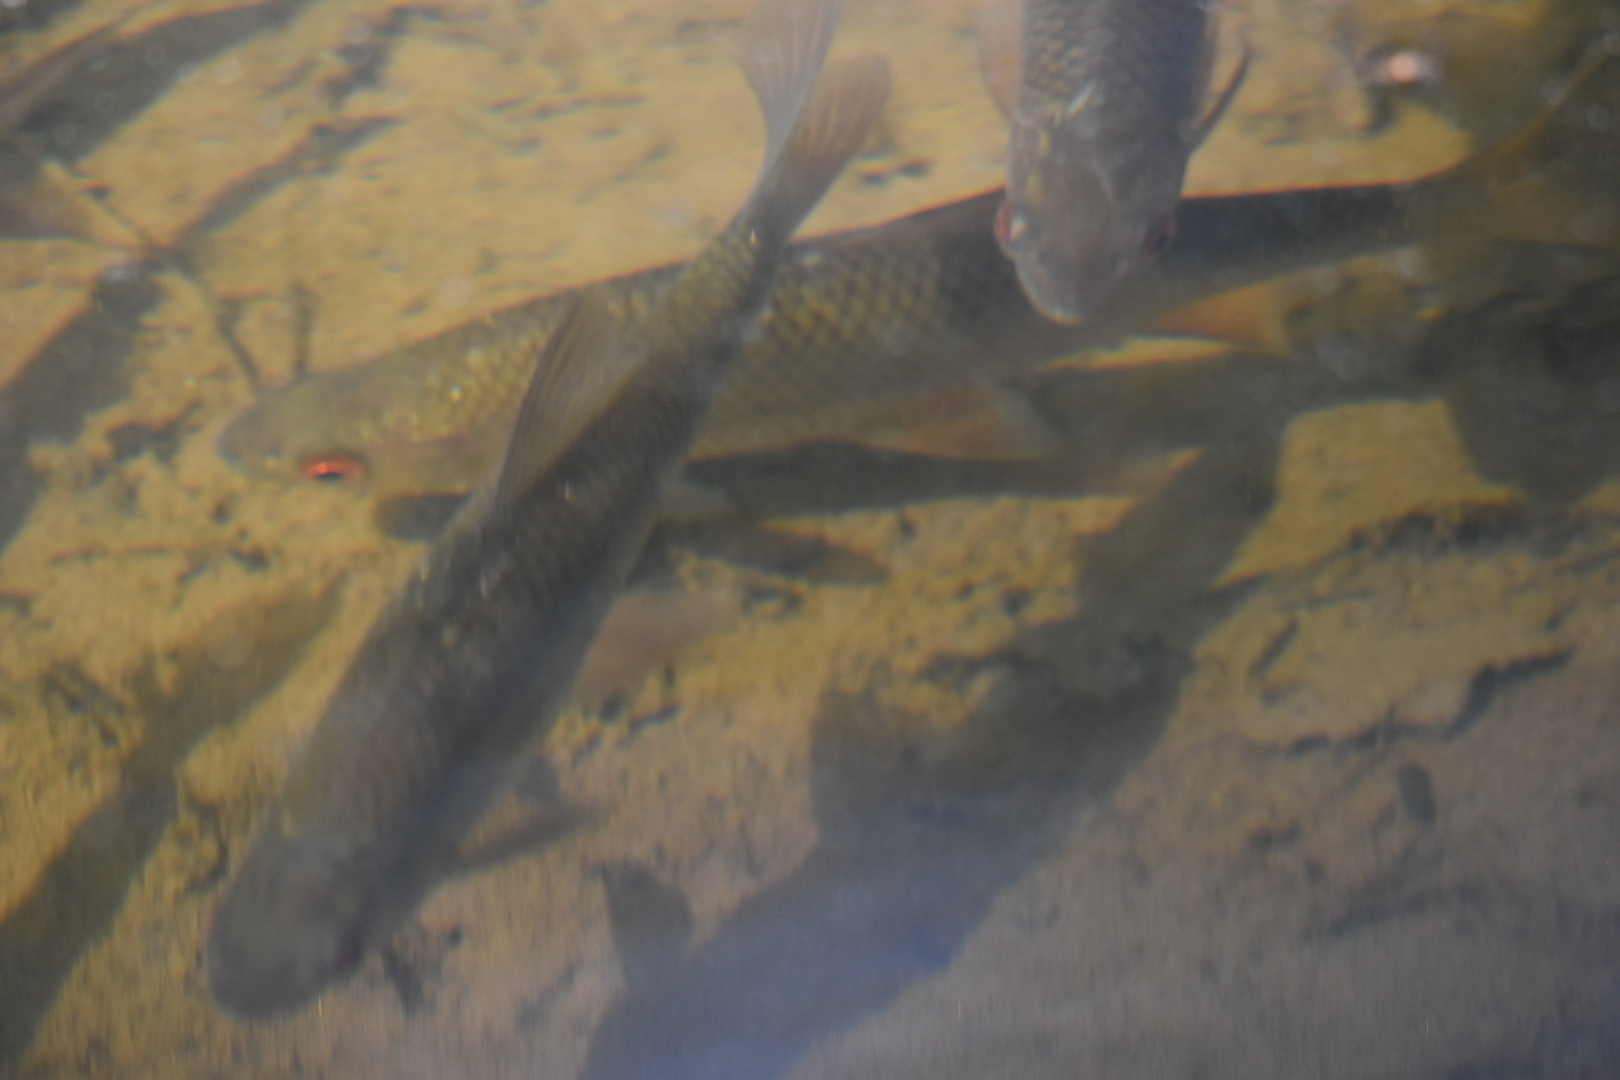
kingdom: Animalia
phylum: Chordata
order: Cypriniformes
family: Cyprinidae
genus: Rutilus
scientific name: Rutilus rutilus
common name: Roach
